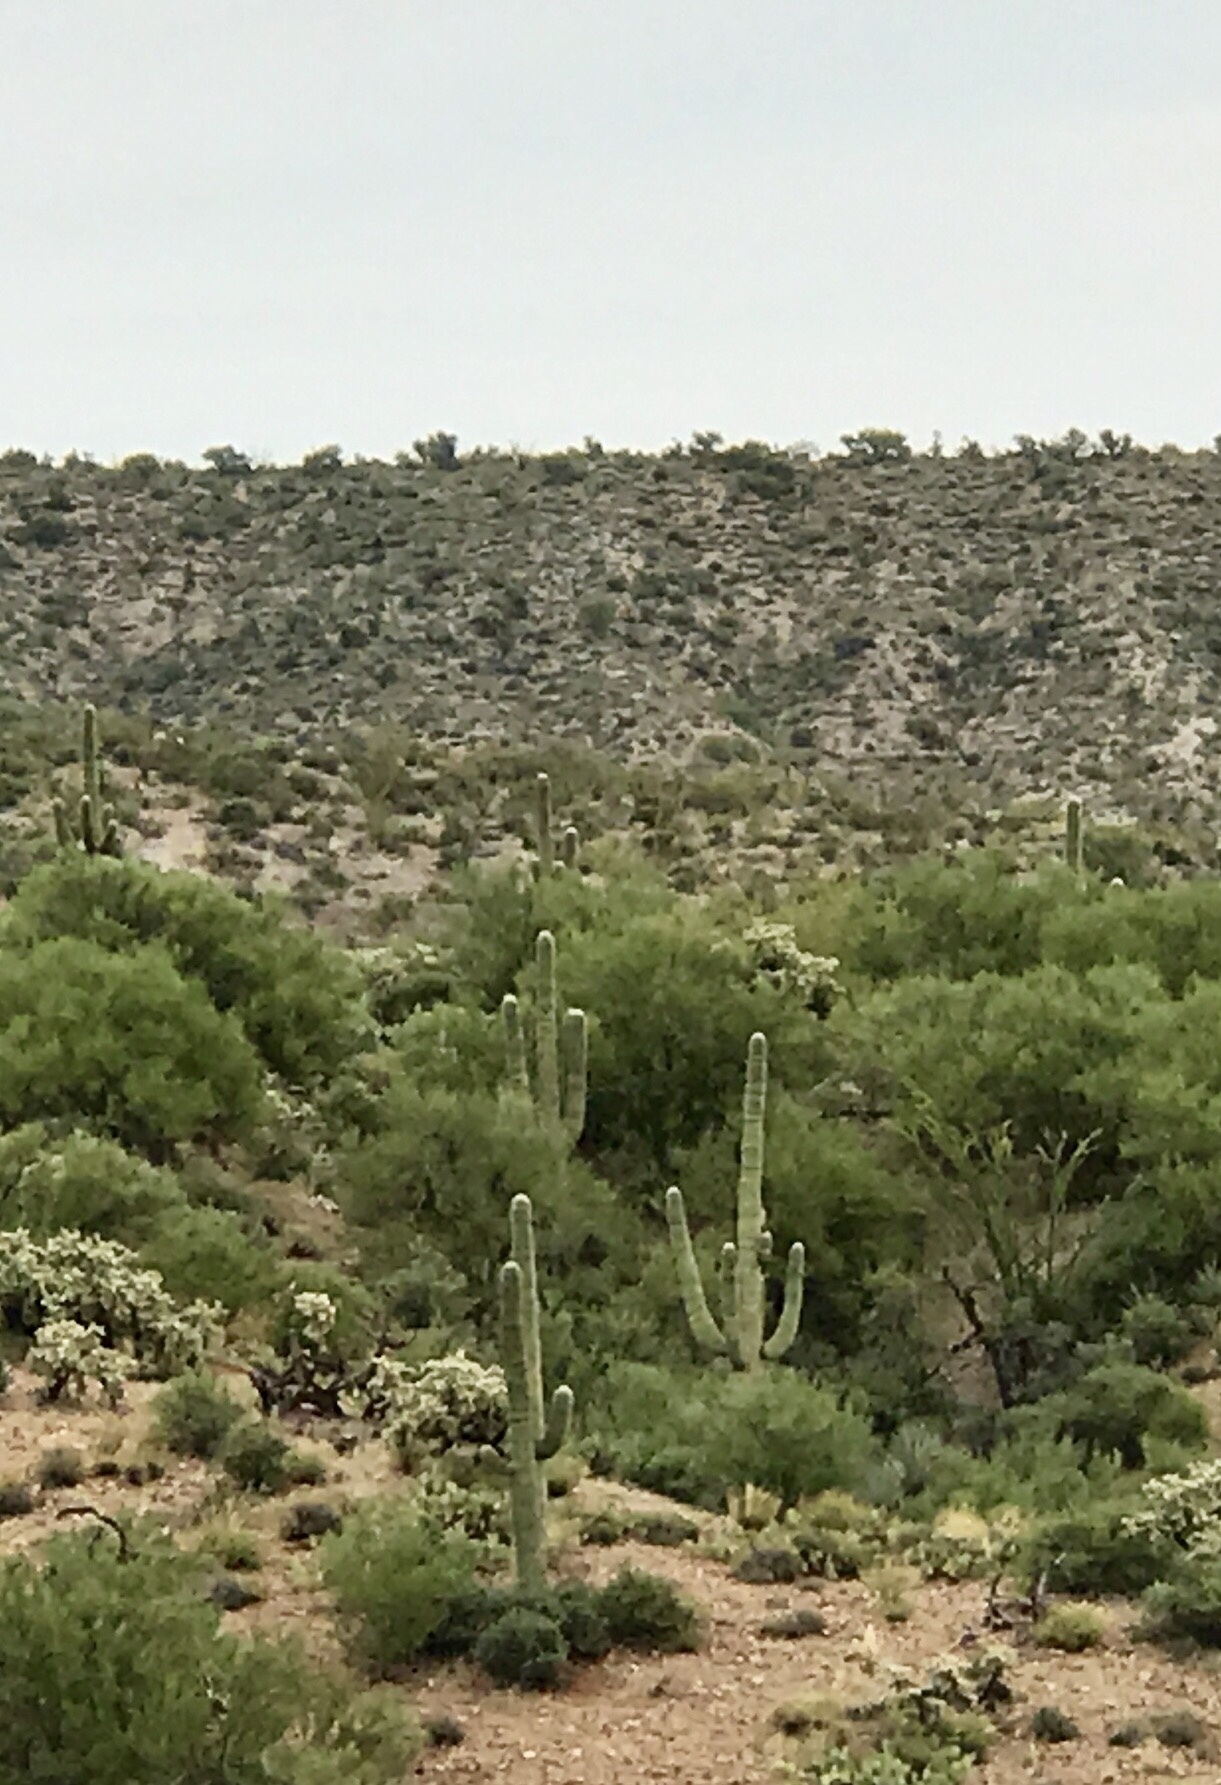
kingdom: Plantae
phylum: Tracheophyta
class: Magnoliopsida
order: Caryophyllales
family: Cactaceae
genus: Carnegiea
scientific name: Carnegiea gigantea
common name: Saguaro
